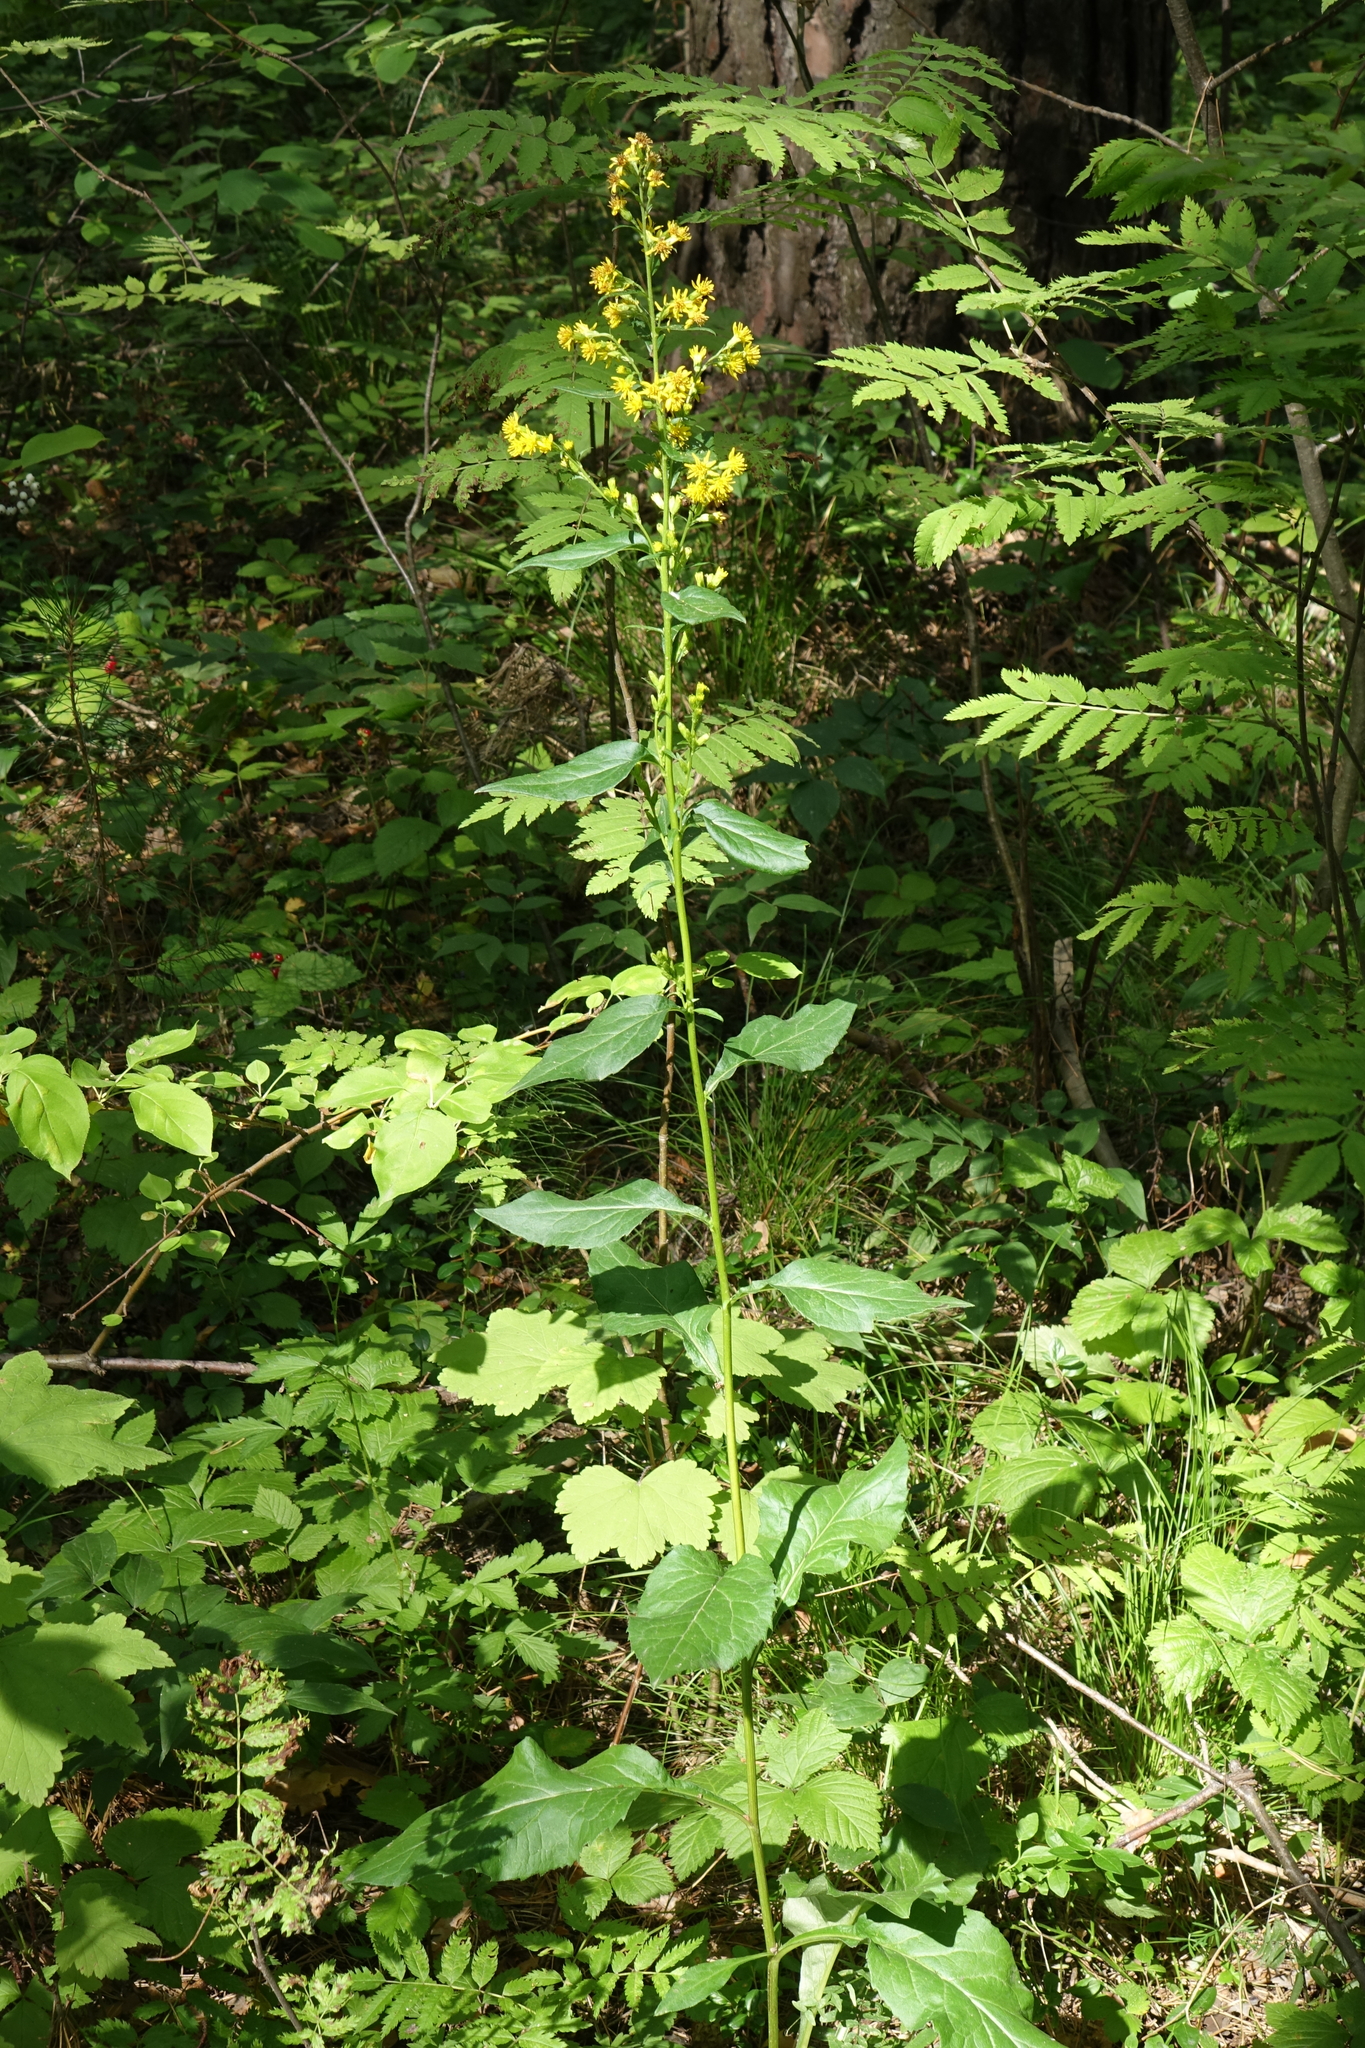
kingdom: Plantae
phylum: Tracheophyta
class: Magnoliopsida
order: Asterales
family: Asteraceae
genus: Solidago
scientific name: Solidago virgaurea
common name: Goldenrod
